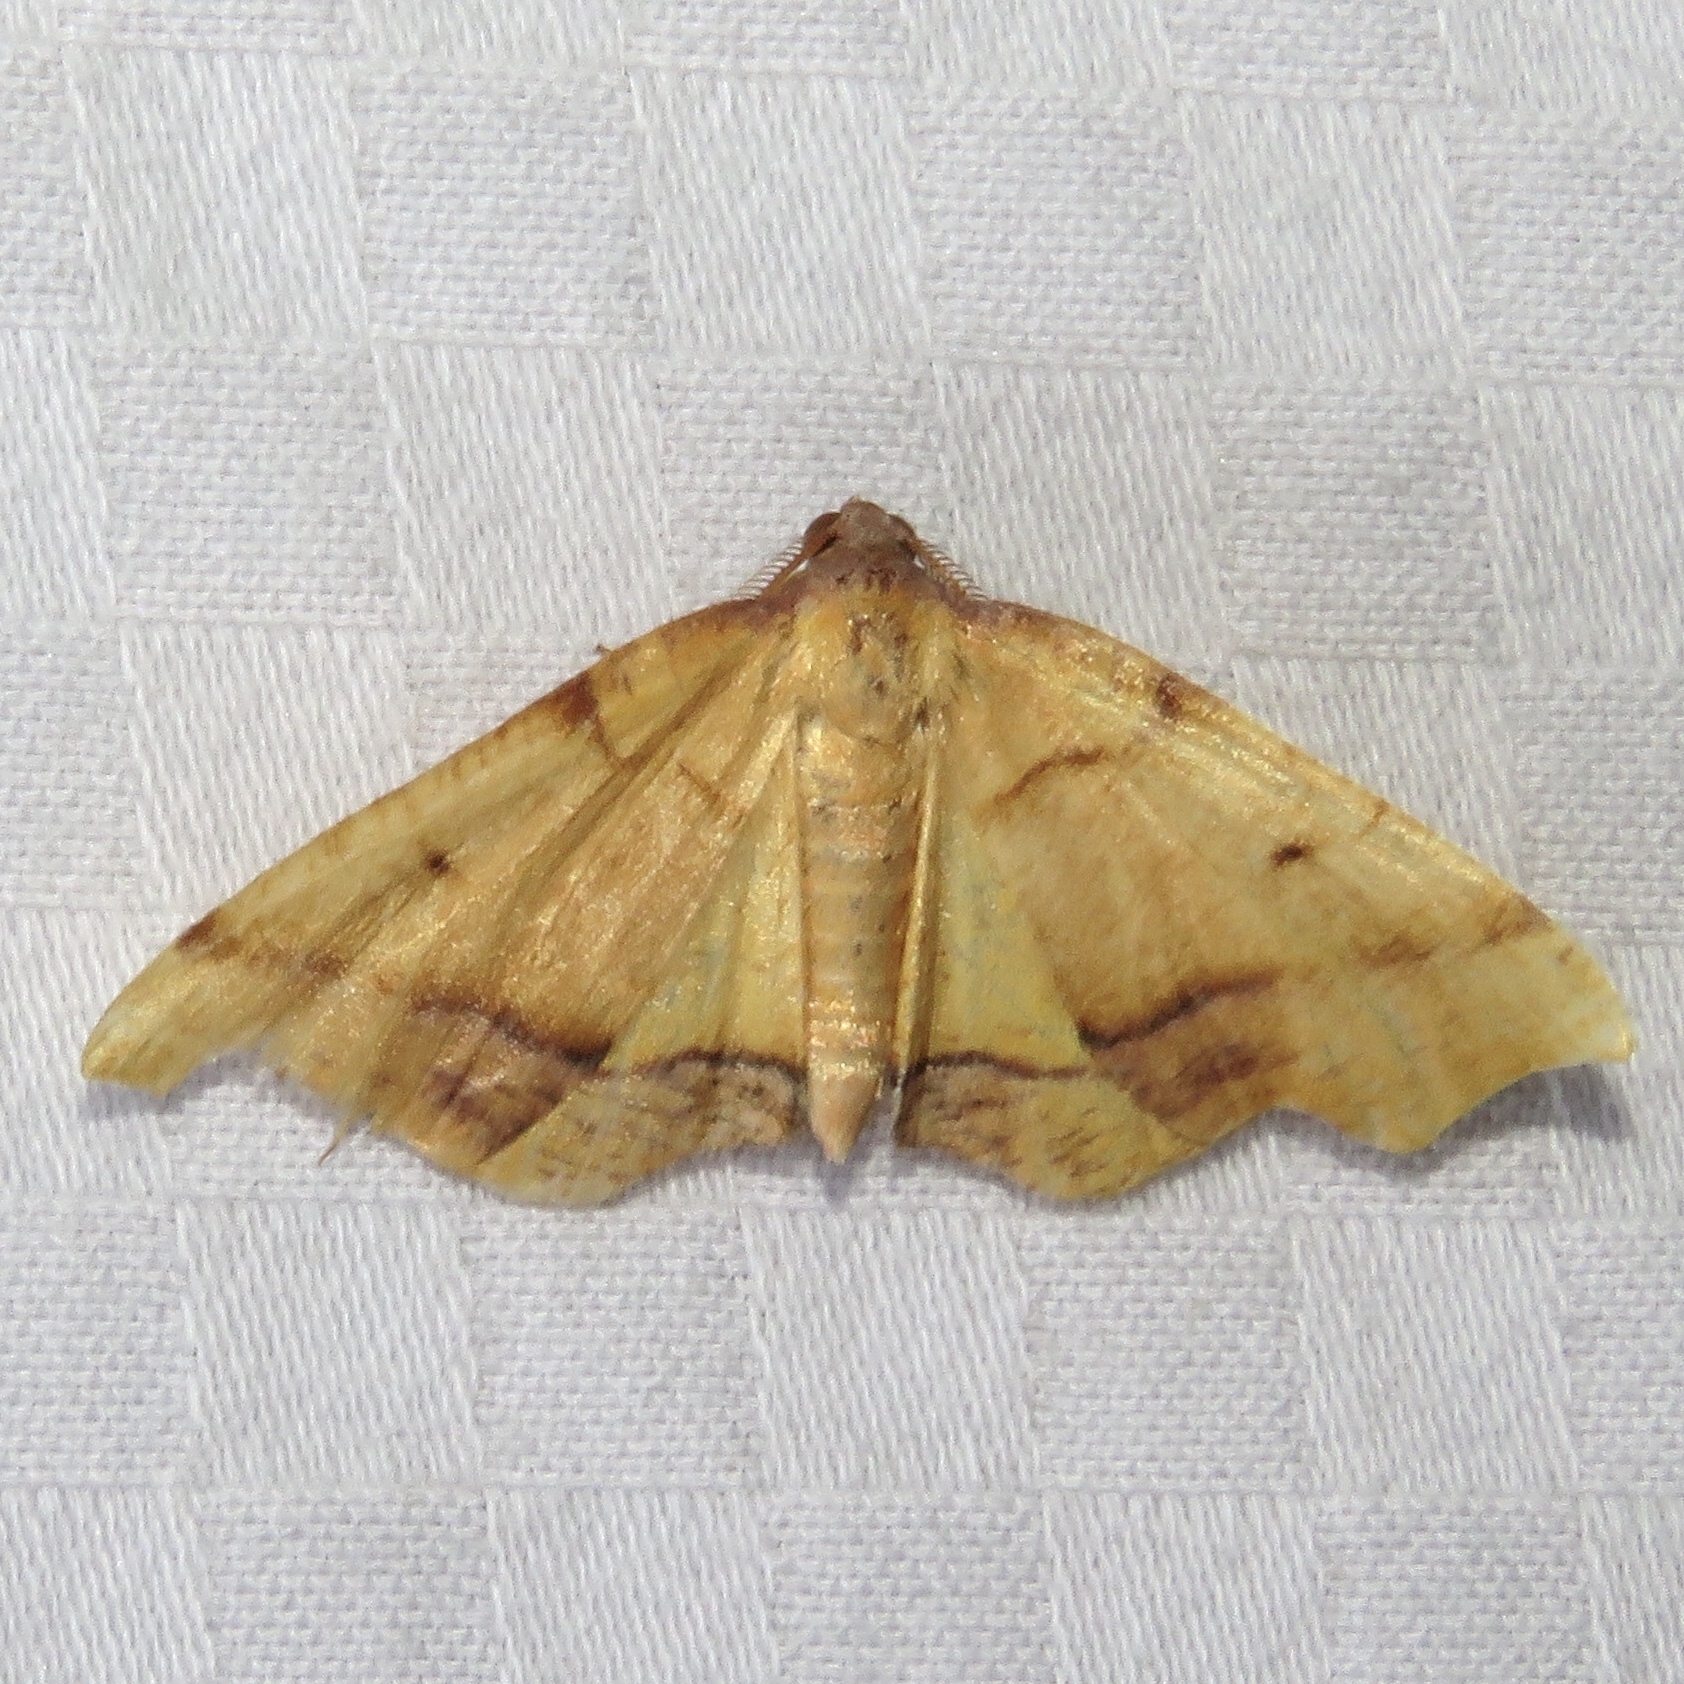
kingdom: Animalia
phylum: Arthropoda
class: Insecta
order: Lepidoptera
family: Geometridae
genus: Plagodis
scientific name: Plagodis phlogosaria
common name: Straight-lined plagodis
